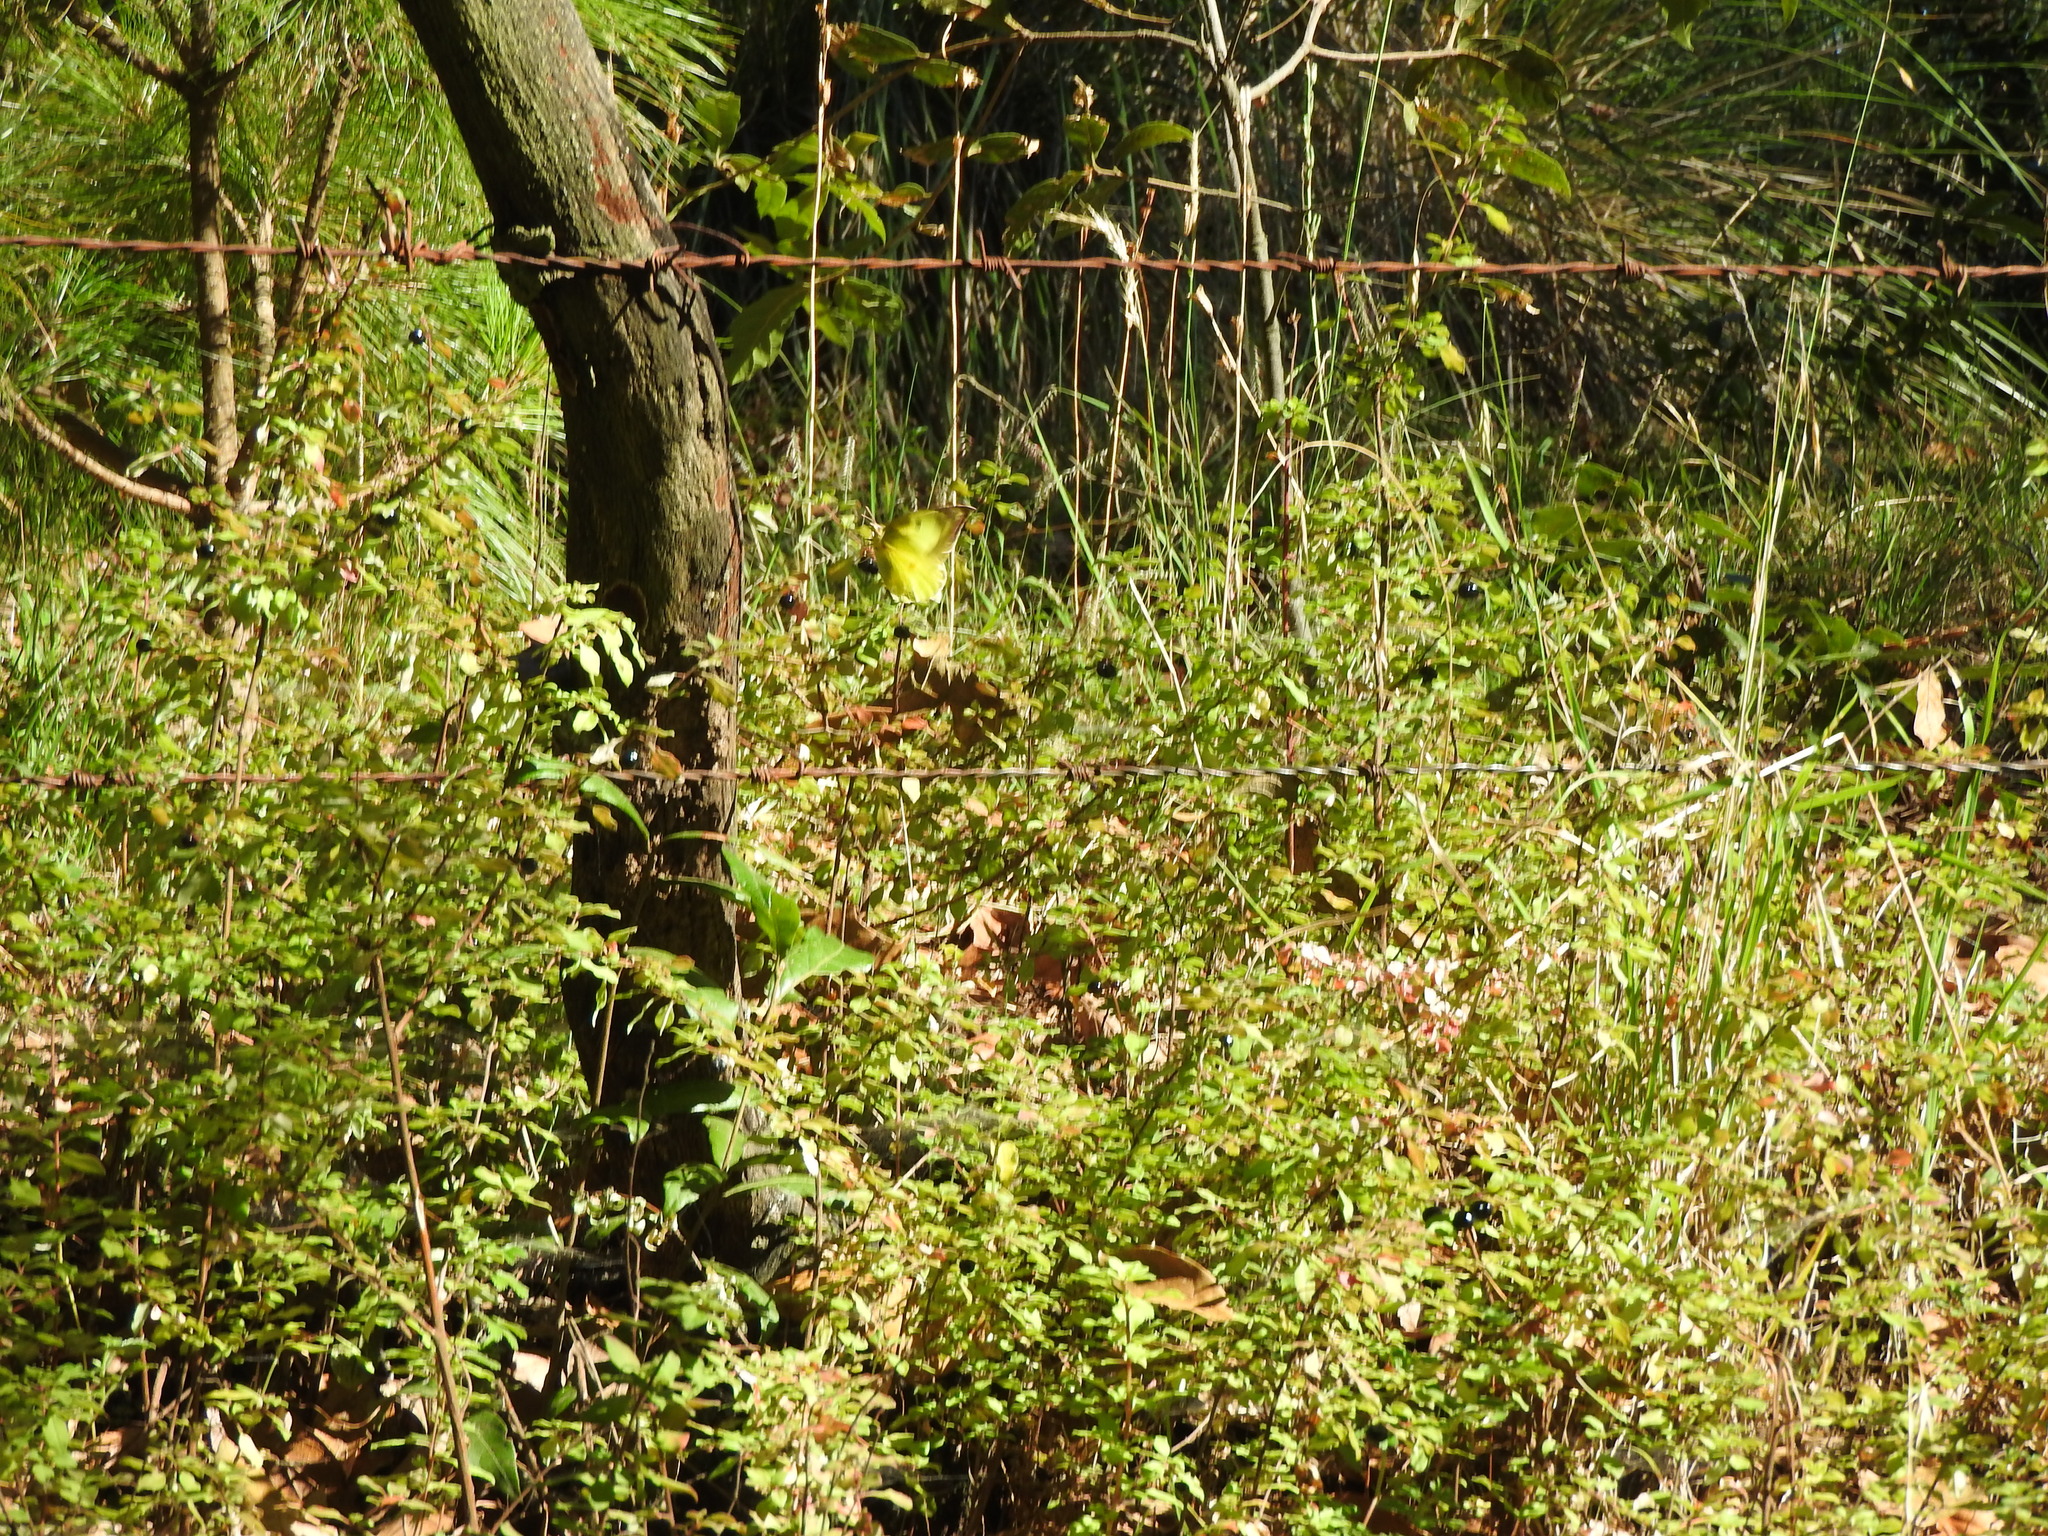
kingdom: Animalia
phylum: Arthropoda
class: Insecta
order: Lepidoptera
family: Pieridae
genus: Zerene
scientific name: Zerene cesonia
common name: Southern dogface
